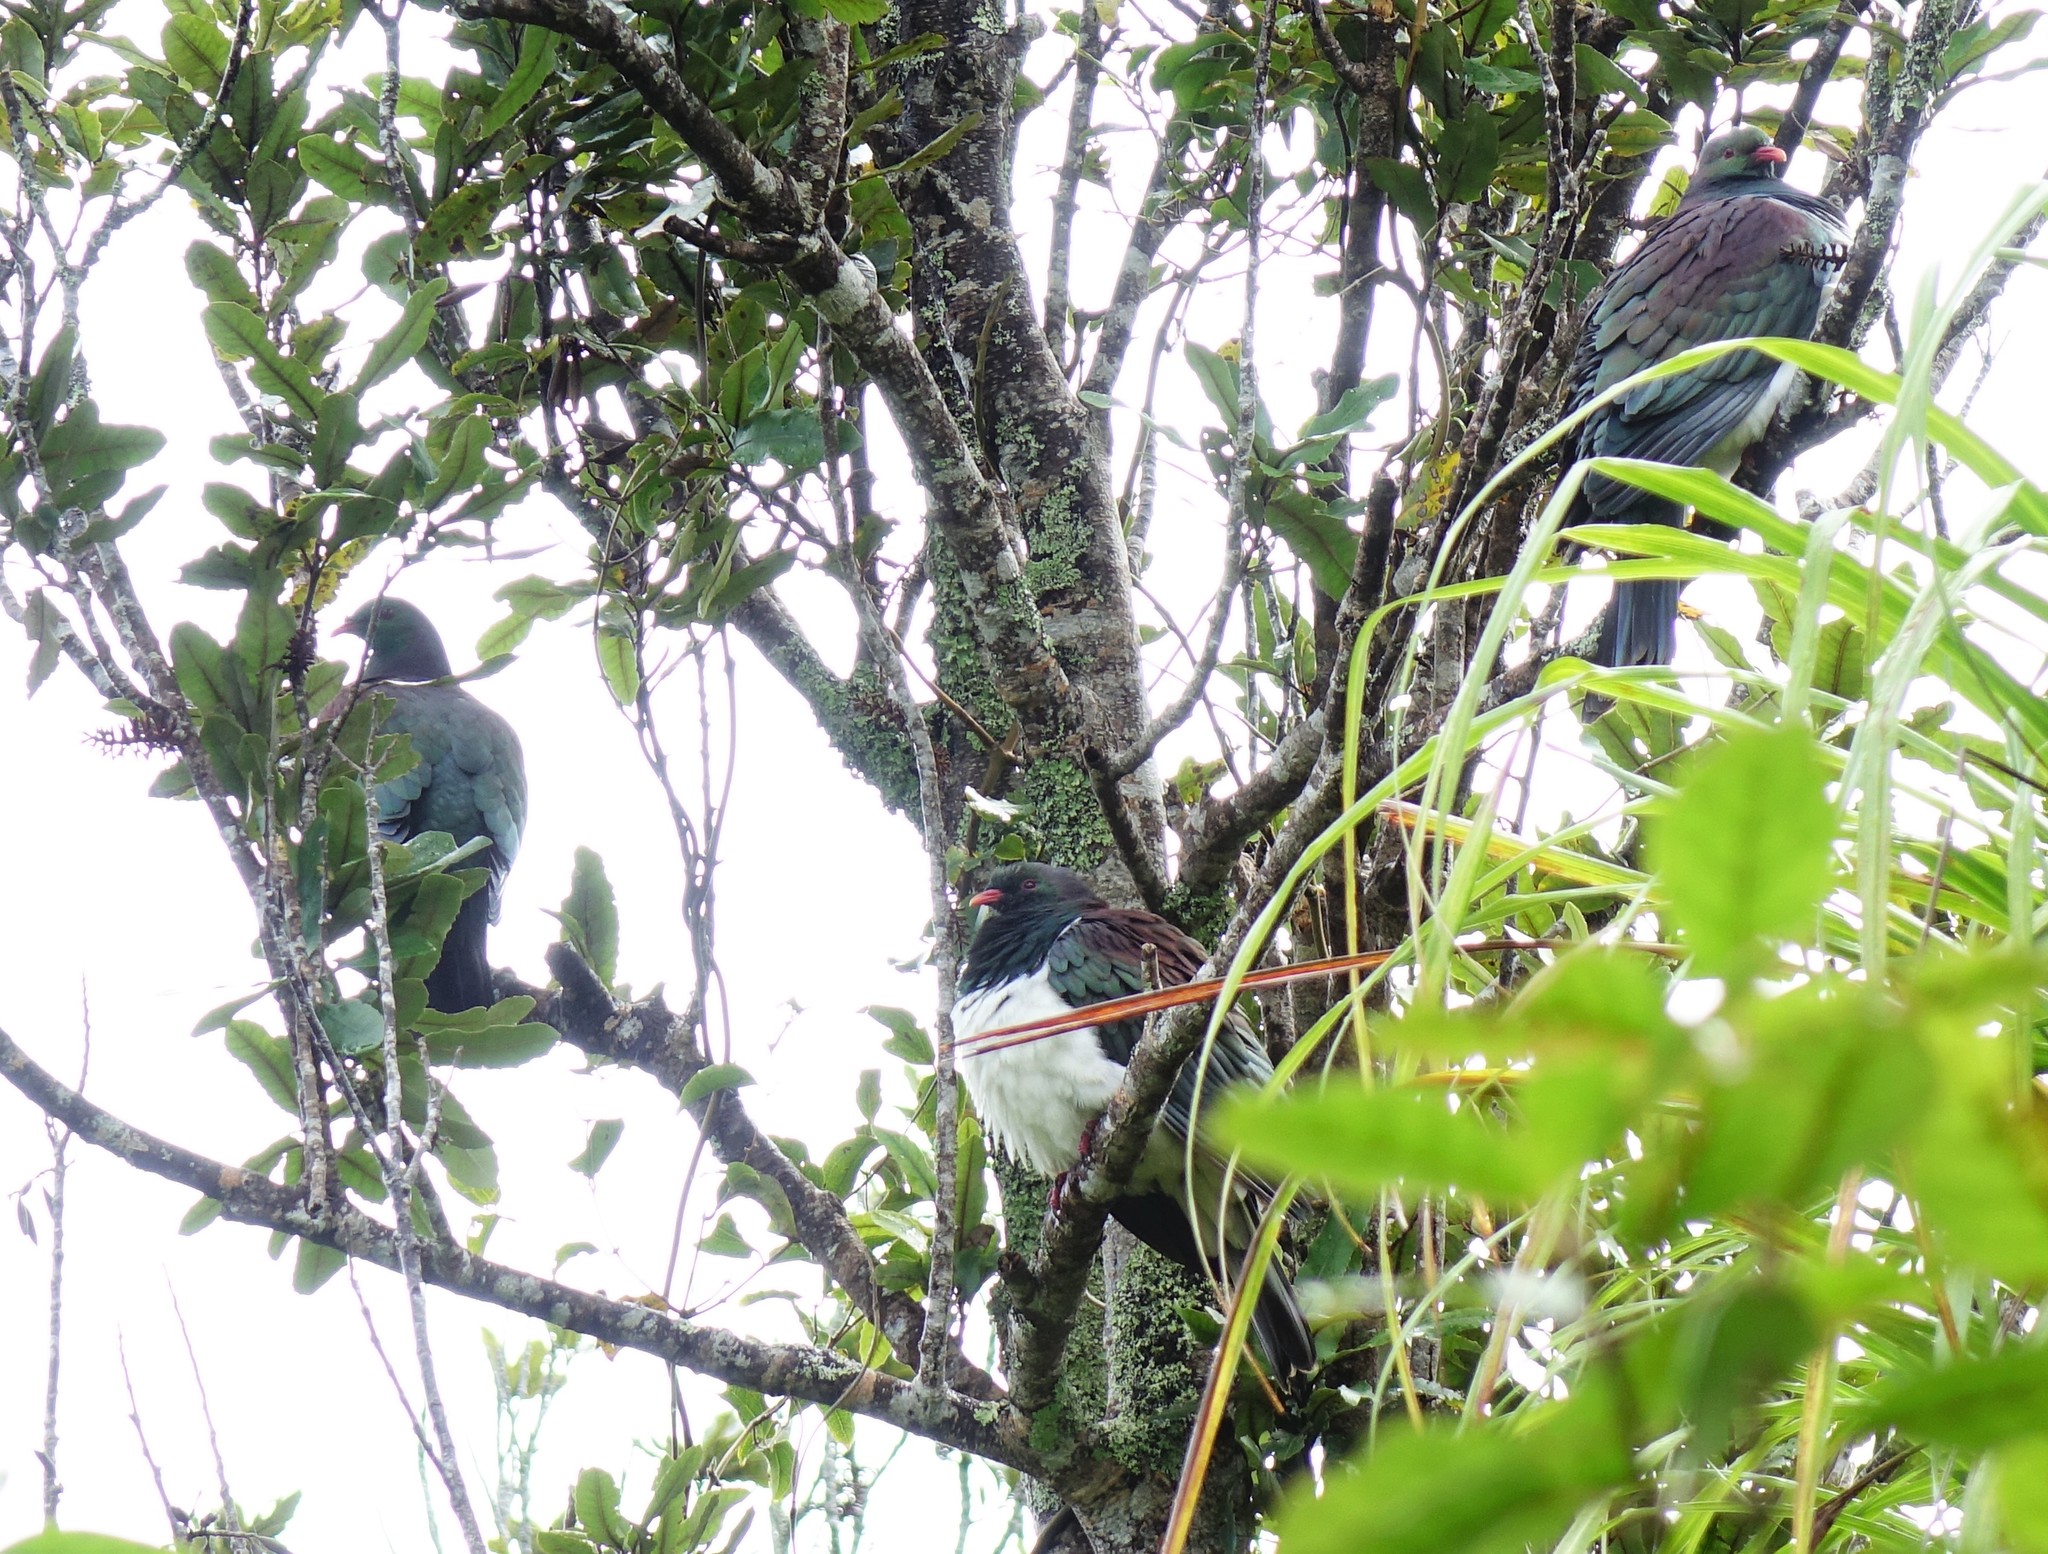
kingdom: Animalia
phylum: Chordata
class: Aves
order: Columbiformes
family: Columbidae
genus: Hemiphaga
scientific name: Hemiphaga novaeseelandiae
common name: New zealand pigeon
